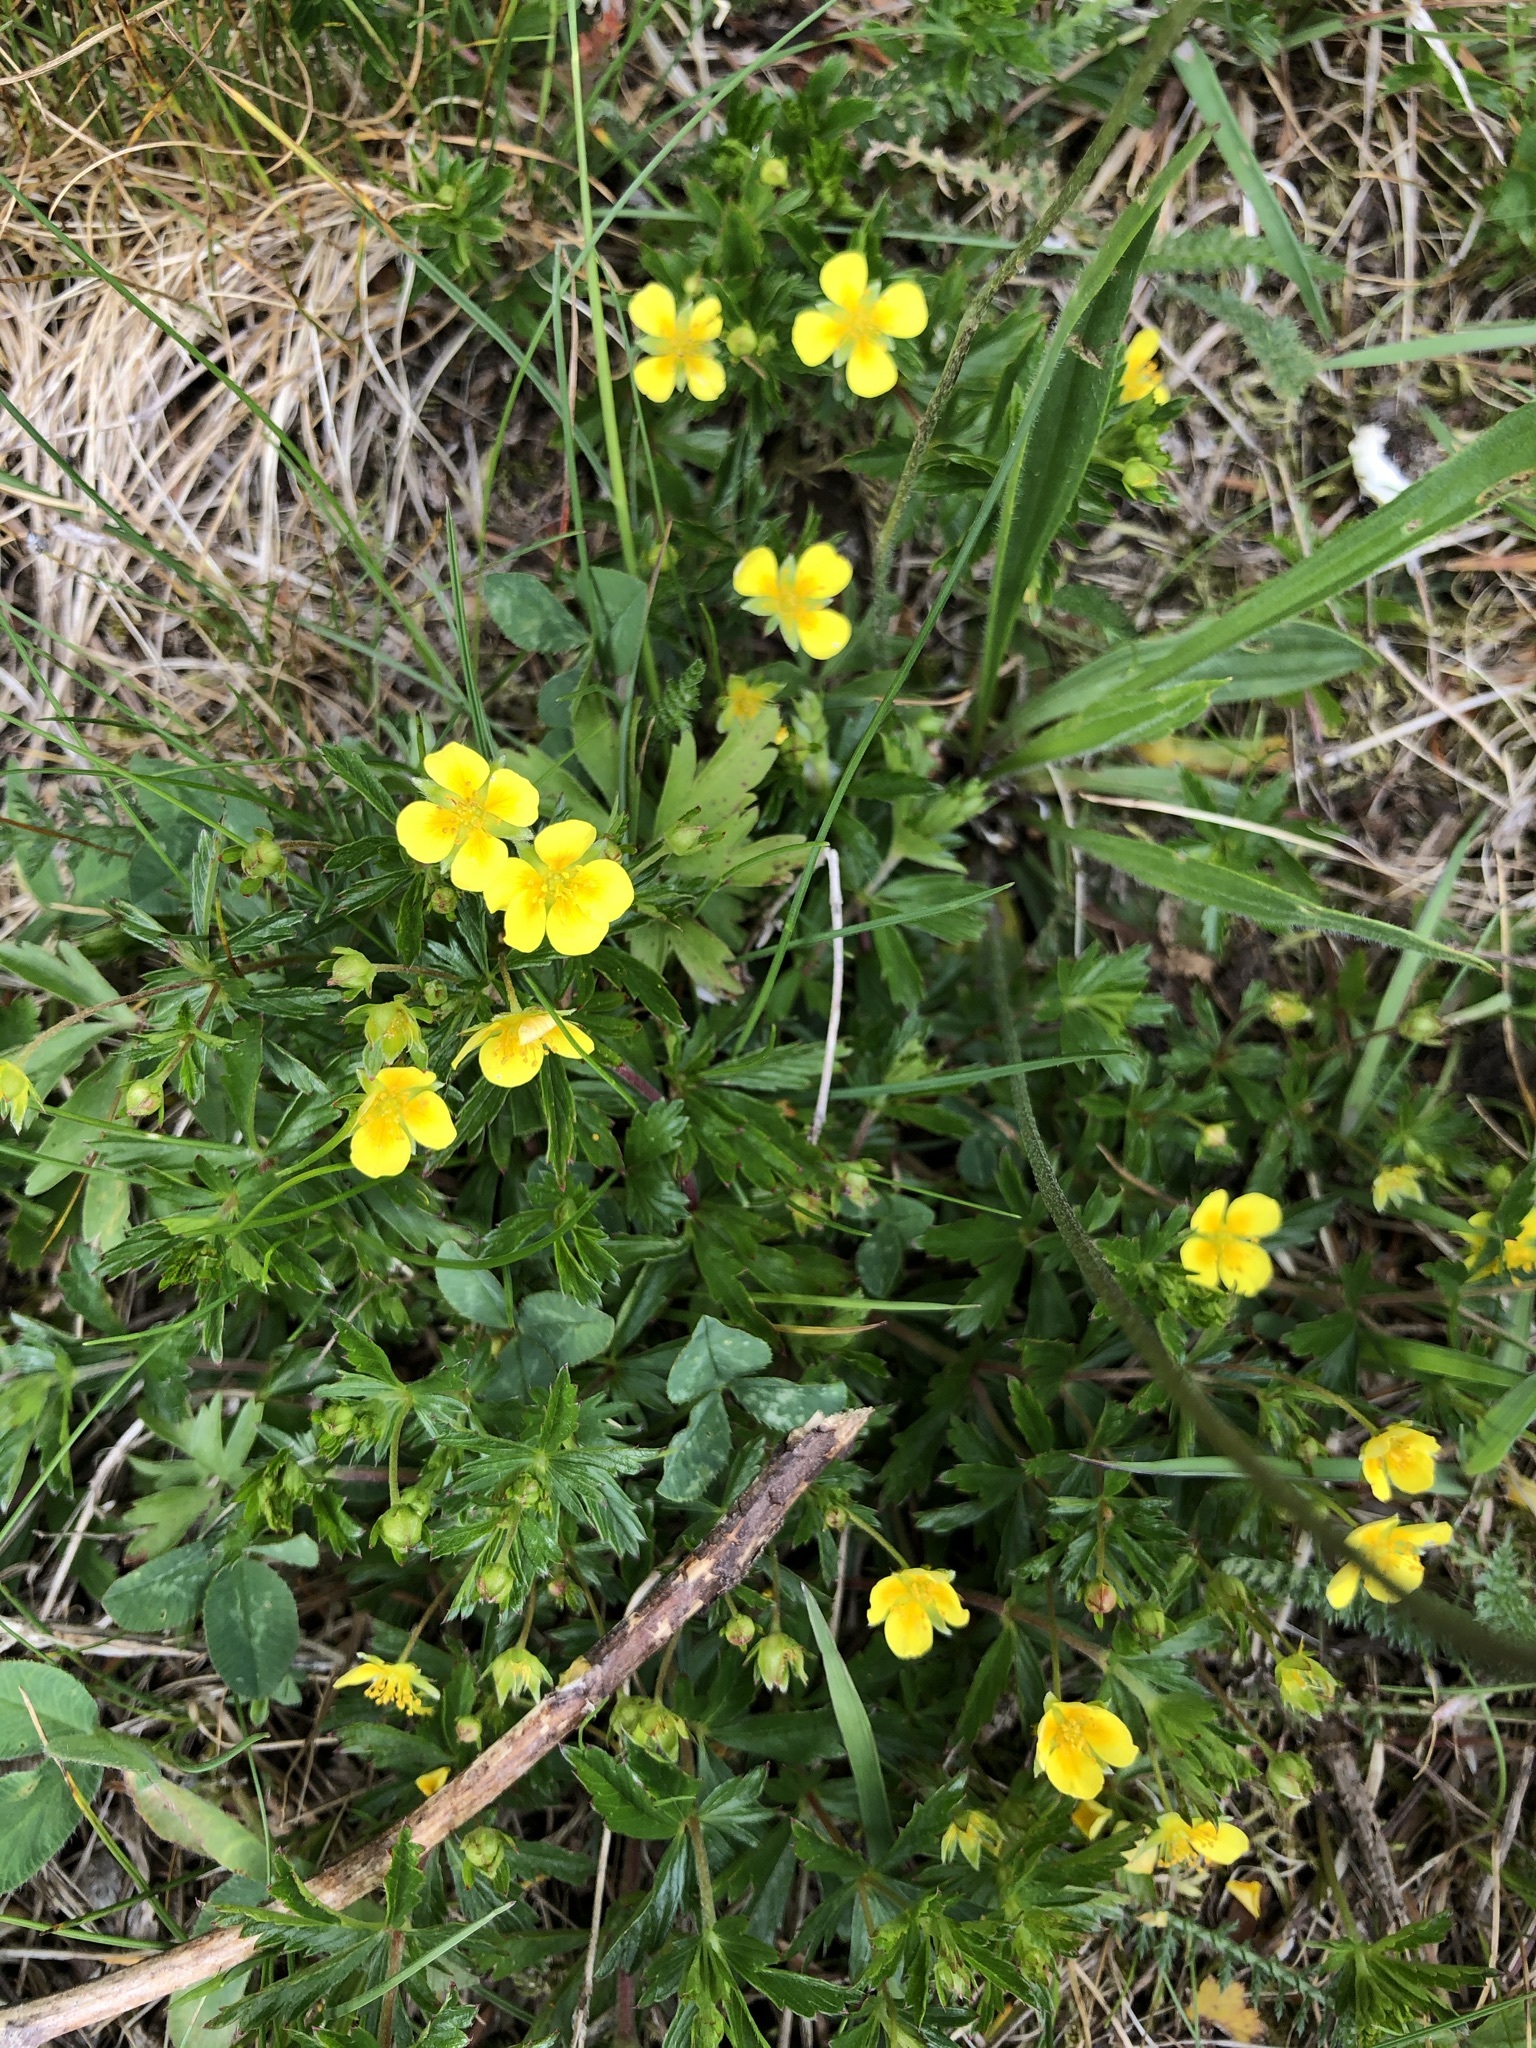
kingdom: Plantae
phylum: Tracheophyta
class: Magnoliopsida
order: Rosales
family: Rosaceae
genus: Potentilla
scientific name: Potentilla erecta
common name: Tormentil
